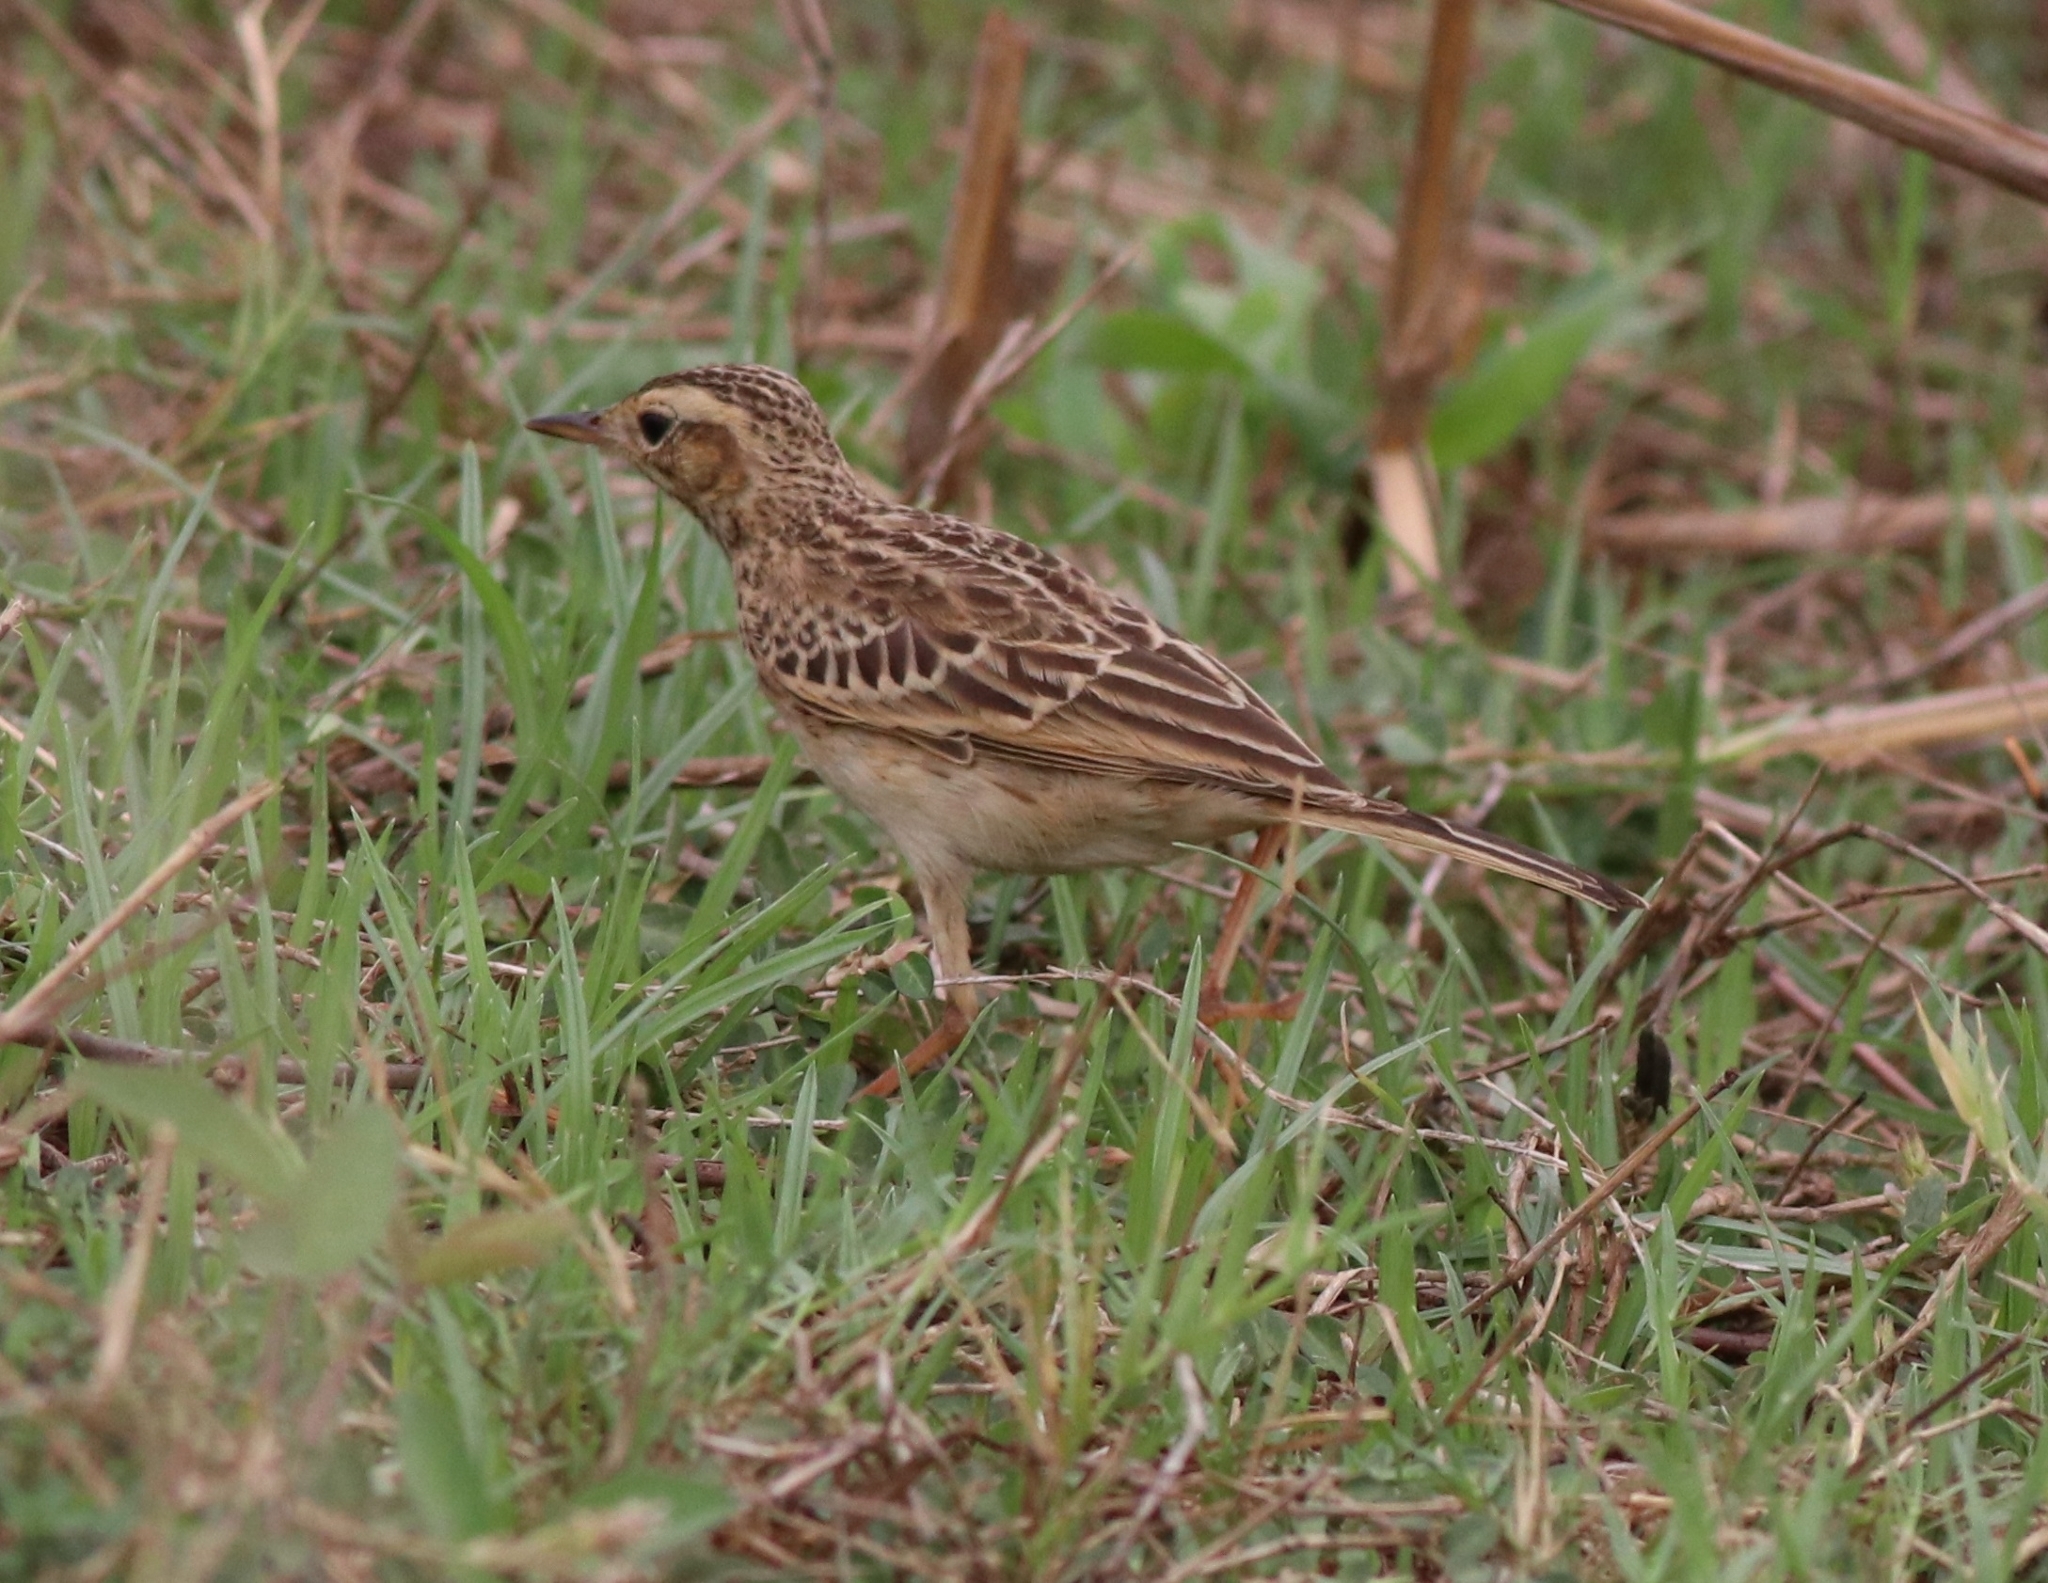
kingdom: Animalia
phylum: Chordata
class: Aves
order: Passeriformes
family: Motacillidae
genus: Anthus
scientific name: Anthus rufulus
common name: Paddyfield pipit
